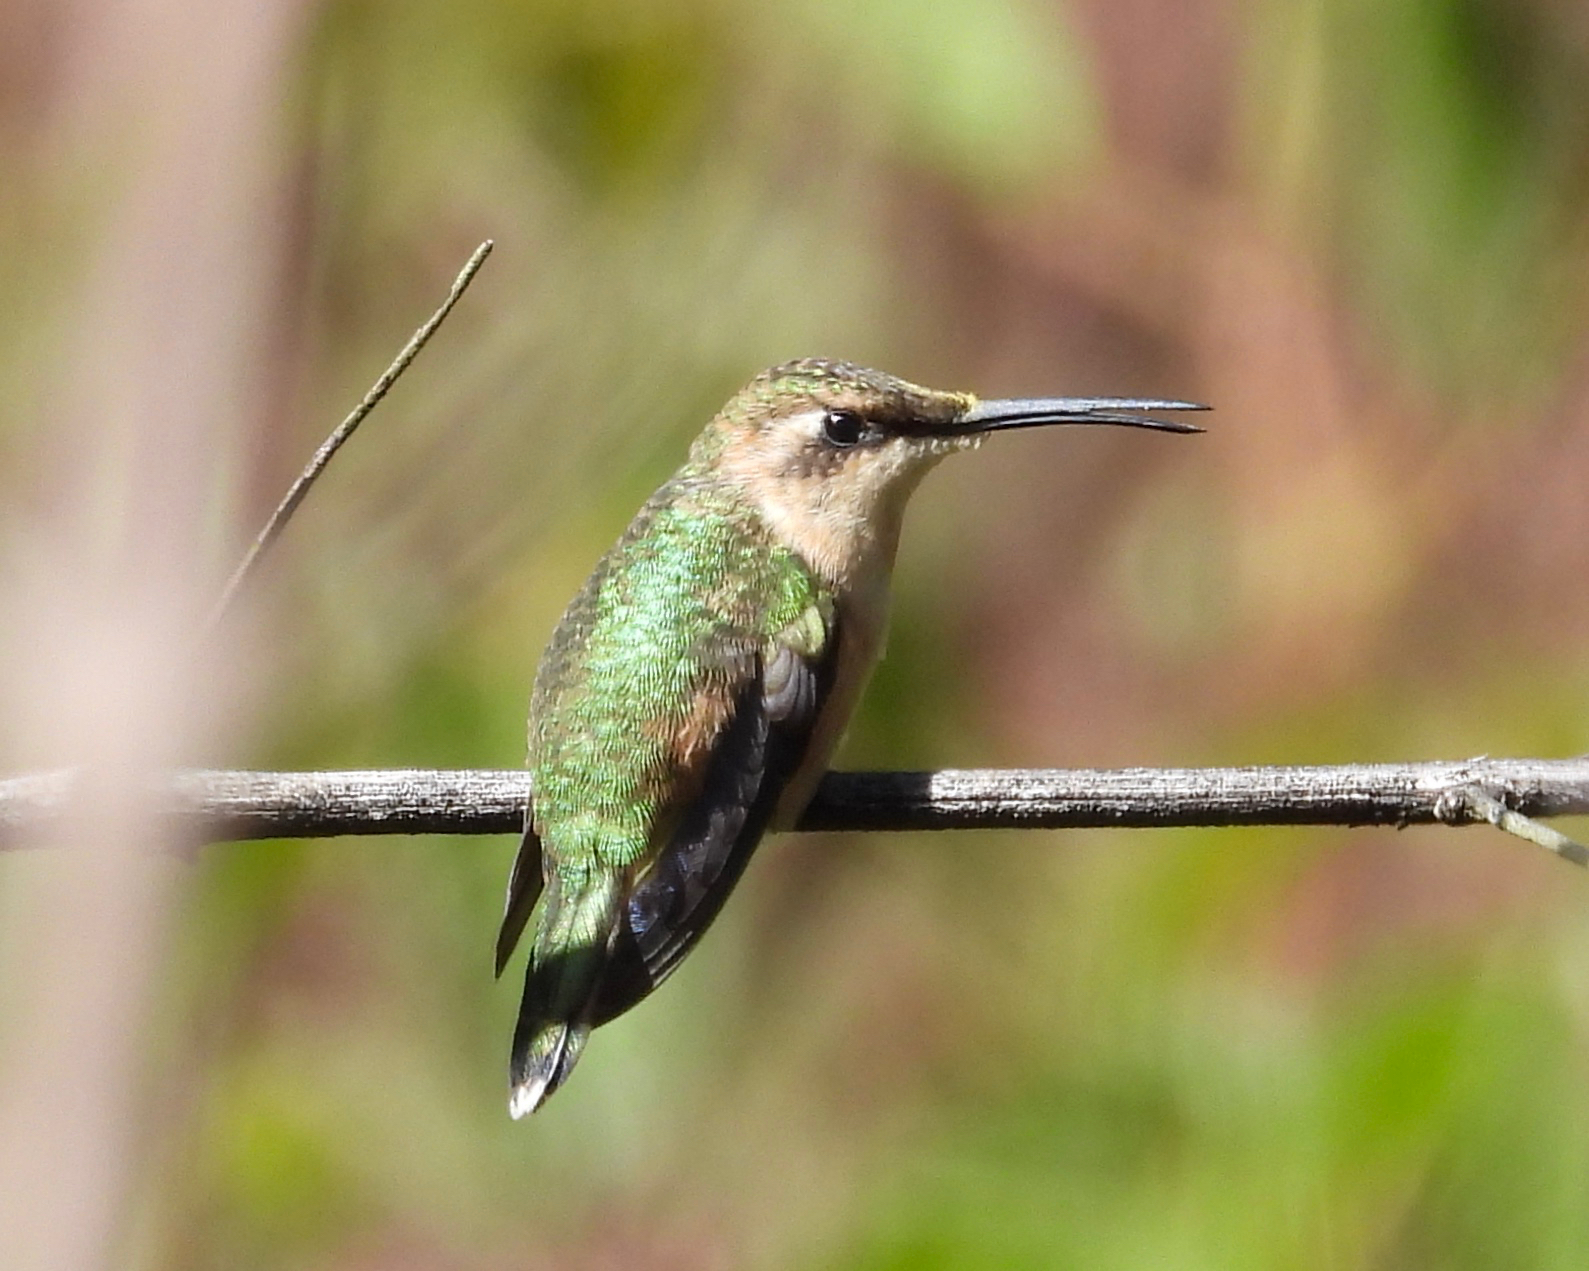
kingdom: Animalia
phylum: Chordata
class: Aves
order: Apodiformes
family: Trochilidae
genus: Doricha
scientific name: Doricha enicura
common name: Slender sheartail
